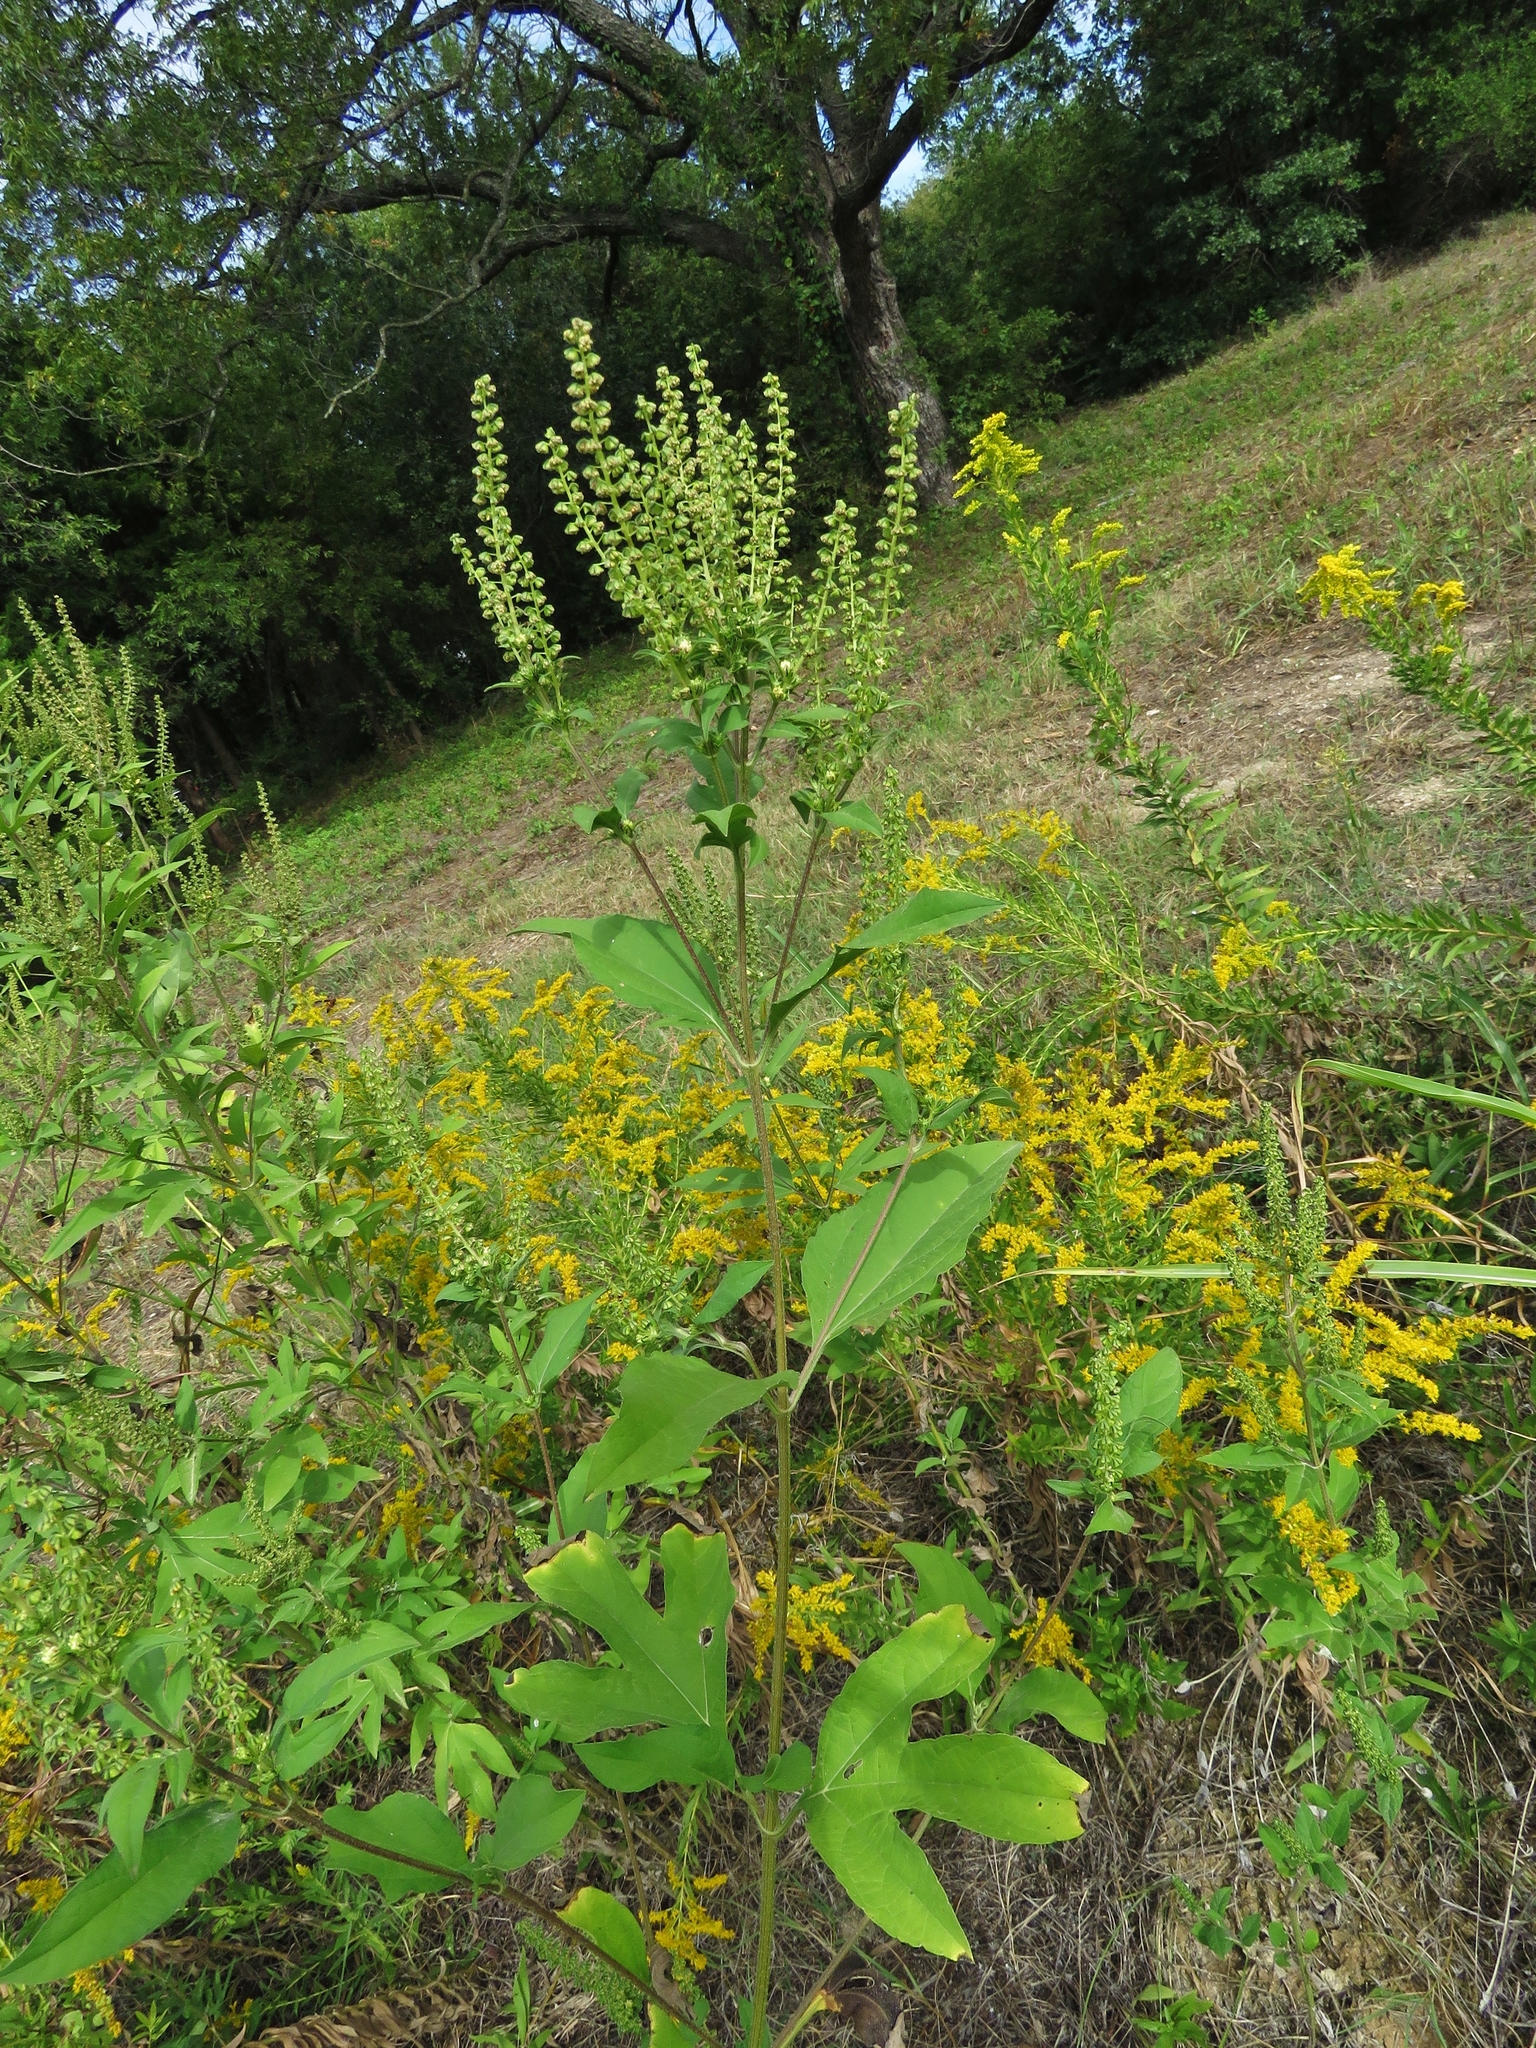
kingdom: Plantae
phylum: Tracheophyta
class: Magnoliopsida
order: Asterales
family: Asteraceae
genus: Ambrosia
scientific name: Ambrosia trifida
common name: Giant ragweed
